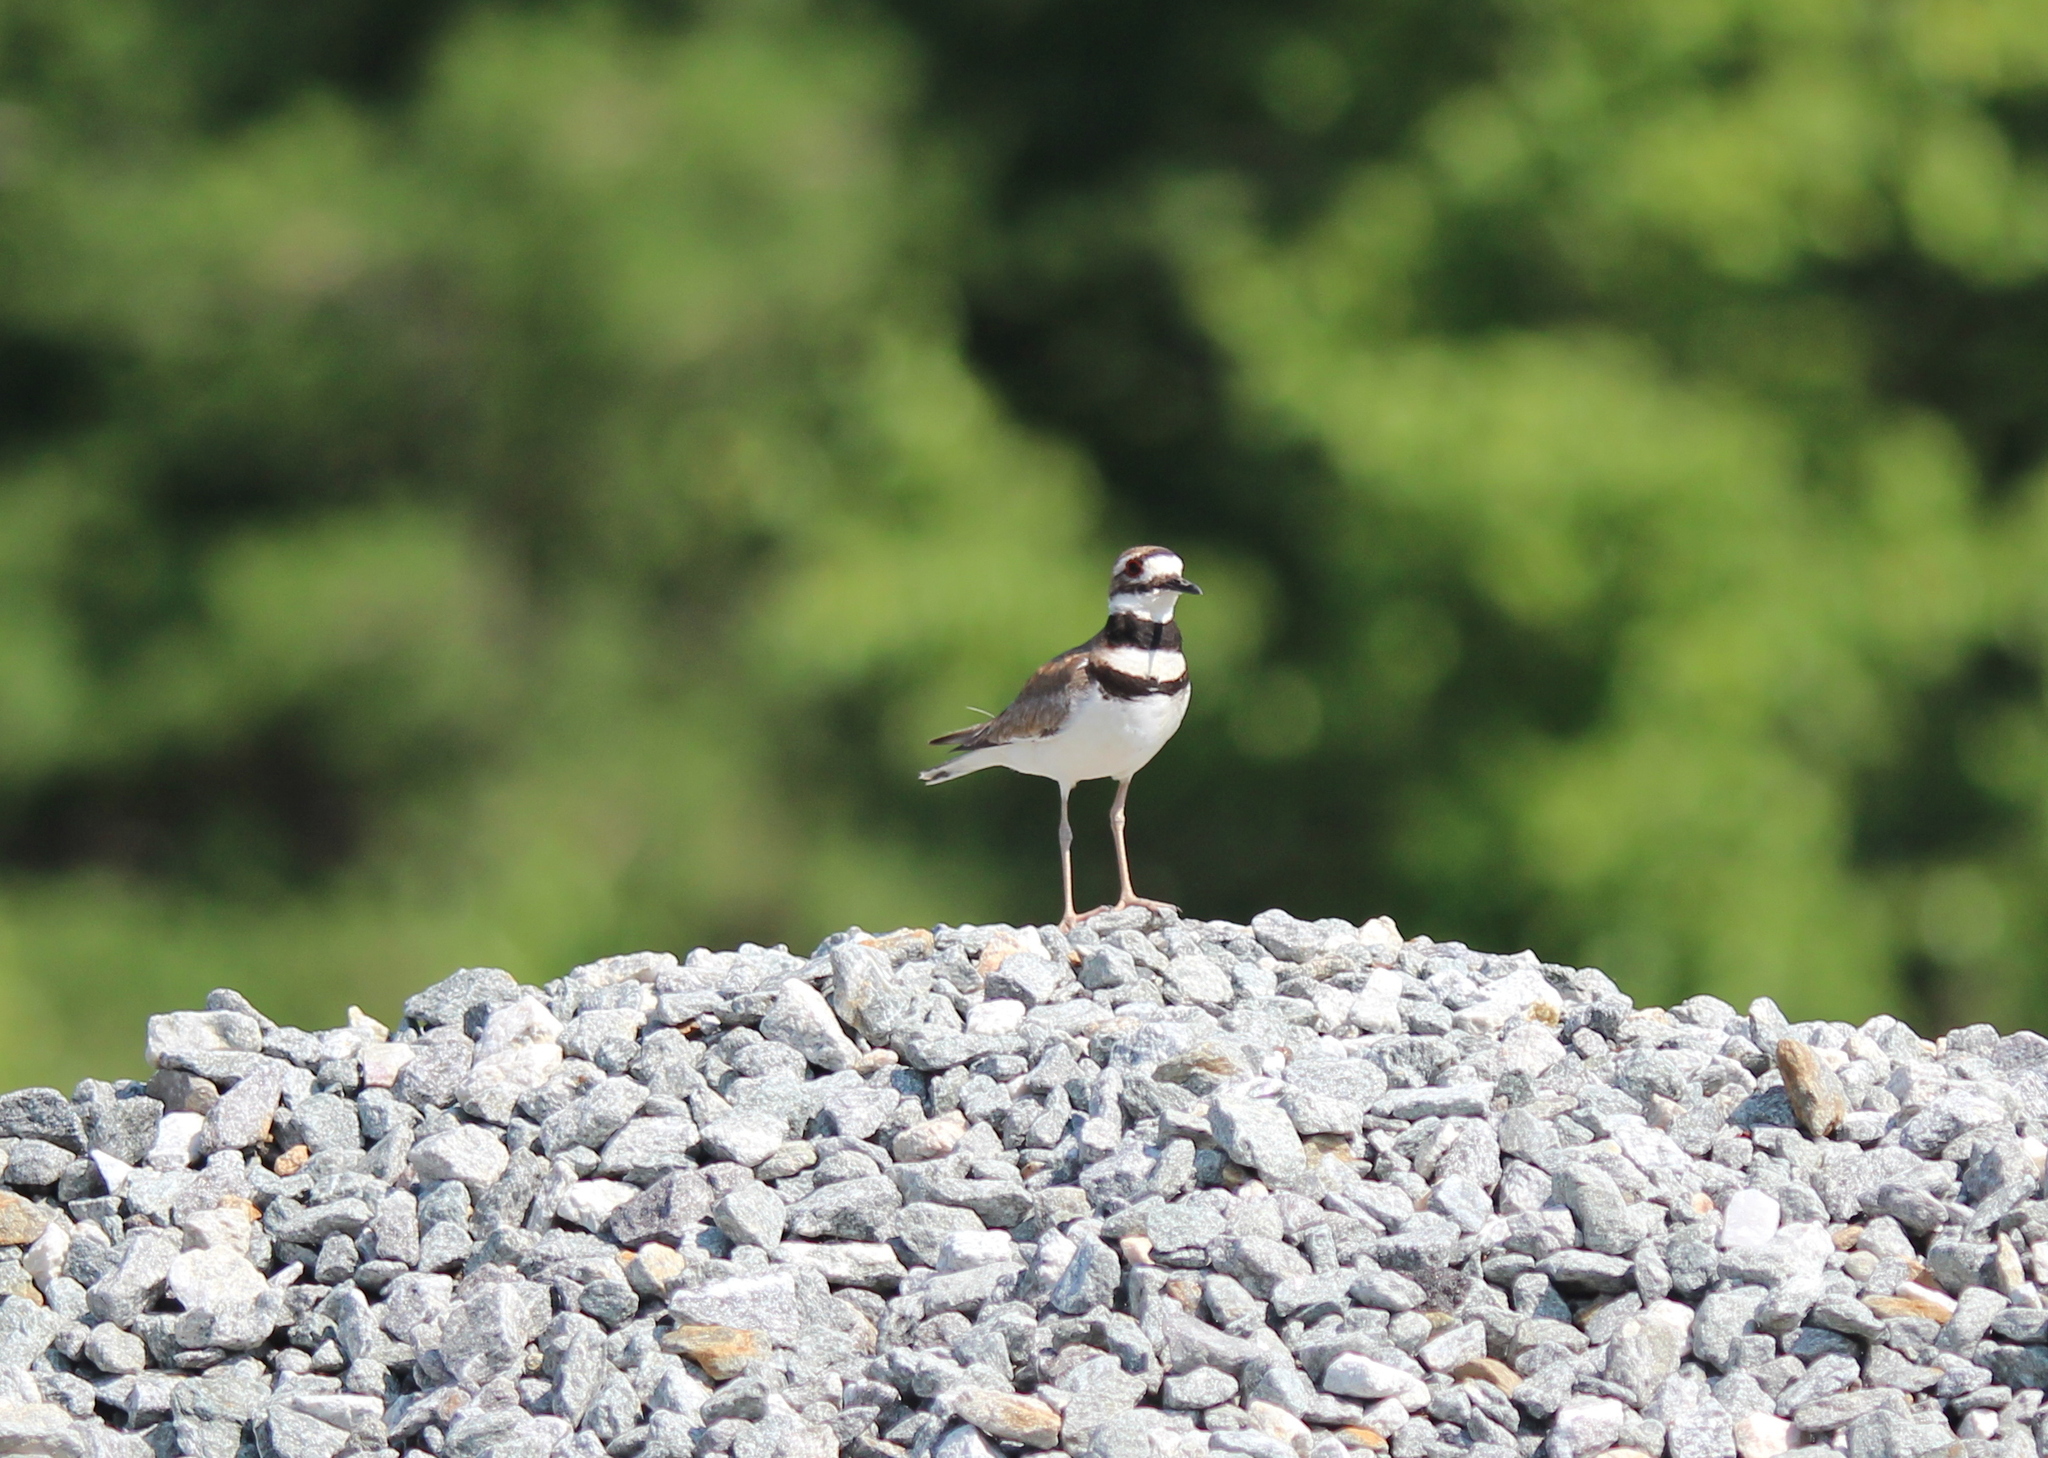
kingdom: Animalia
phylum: Chordata
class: Aves
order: Charadriiformes
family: Charadriidae
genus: Charadrius
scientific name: Charadrius vociferus
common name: Killdeer
